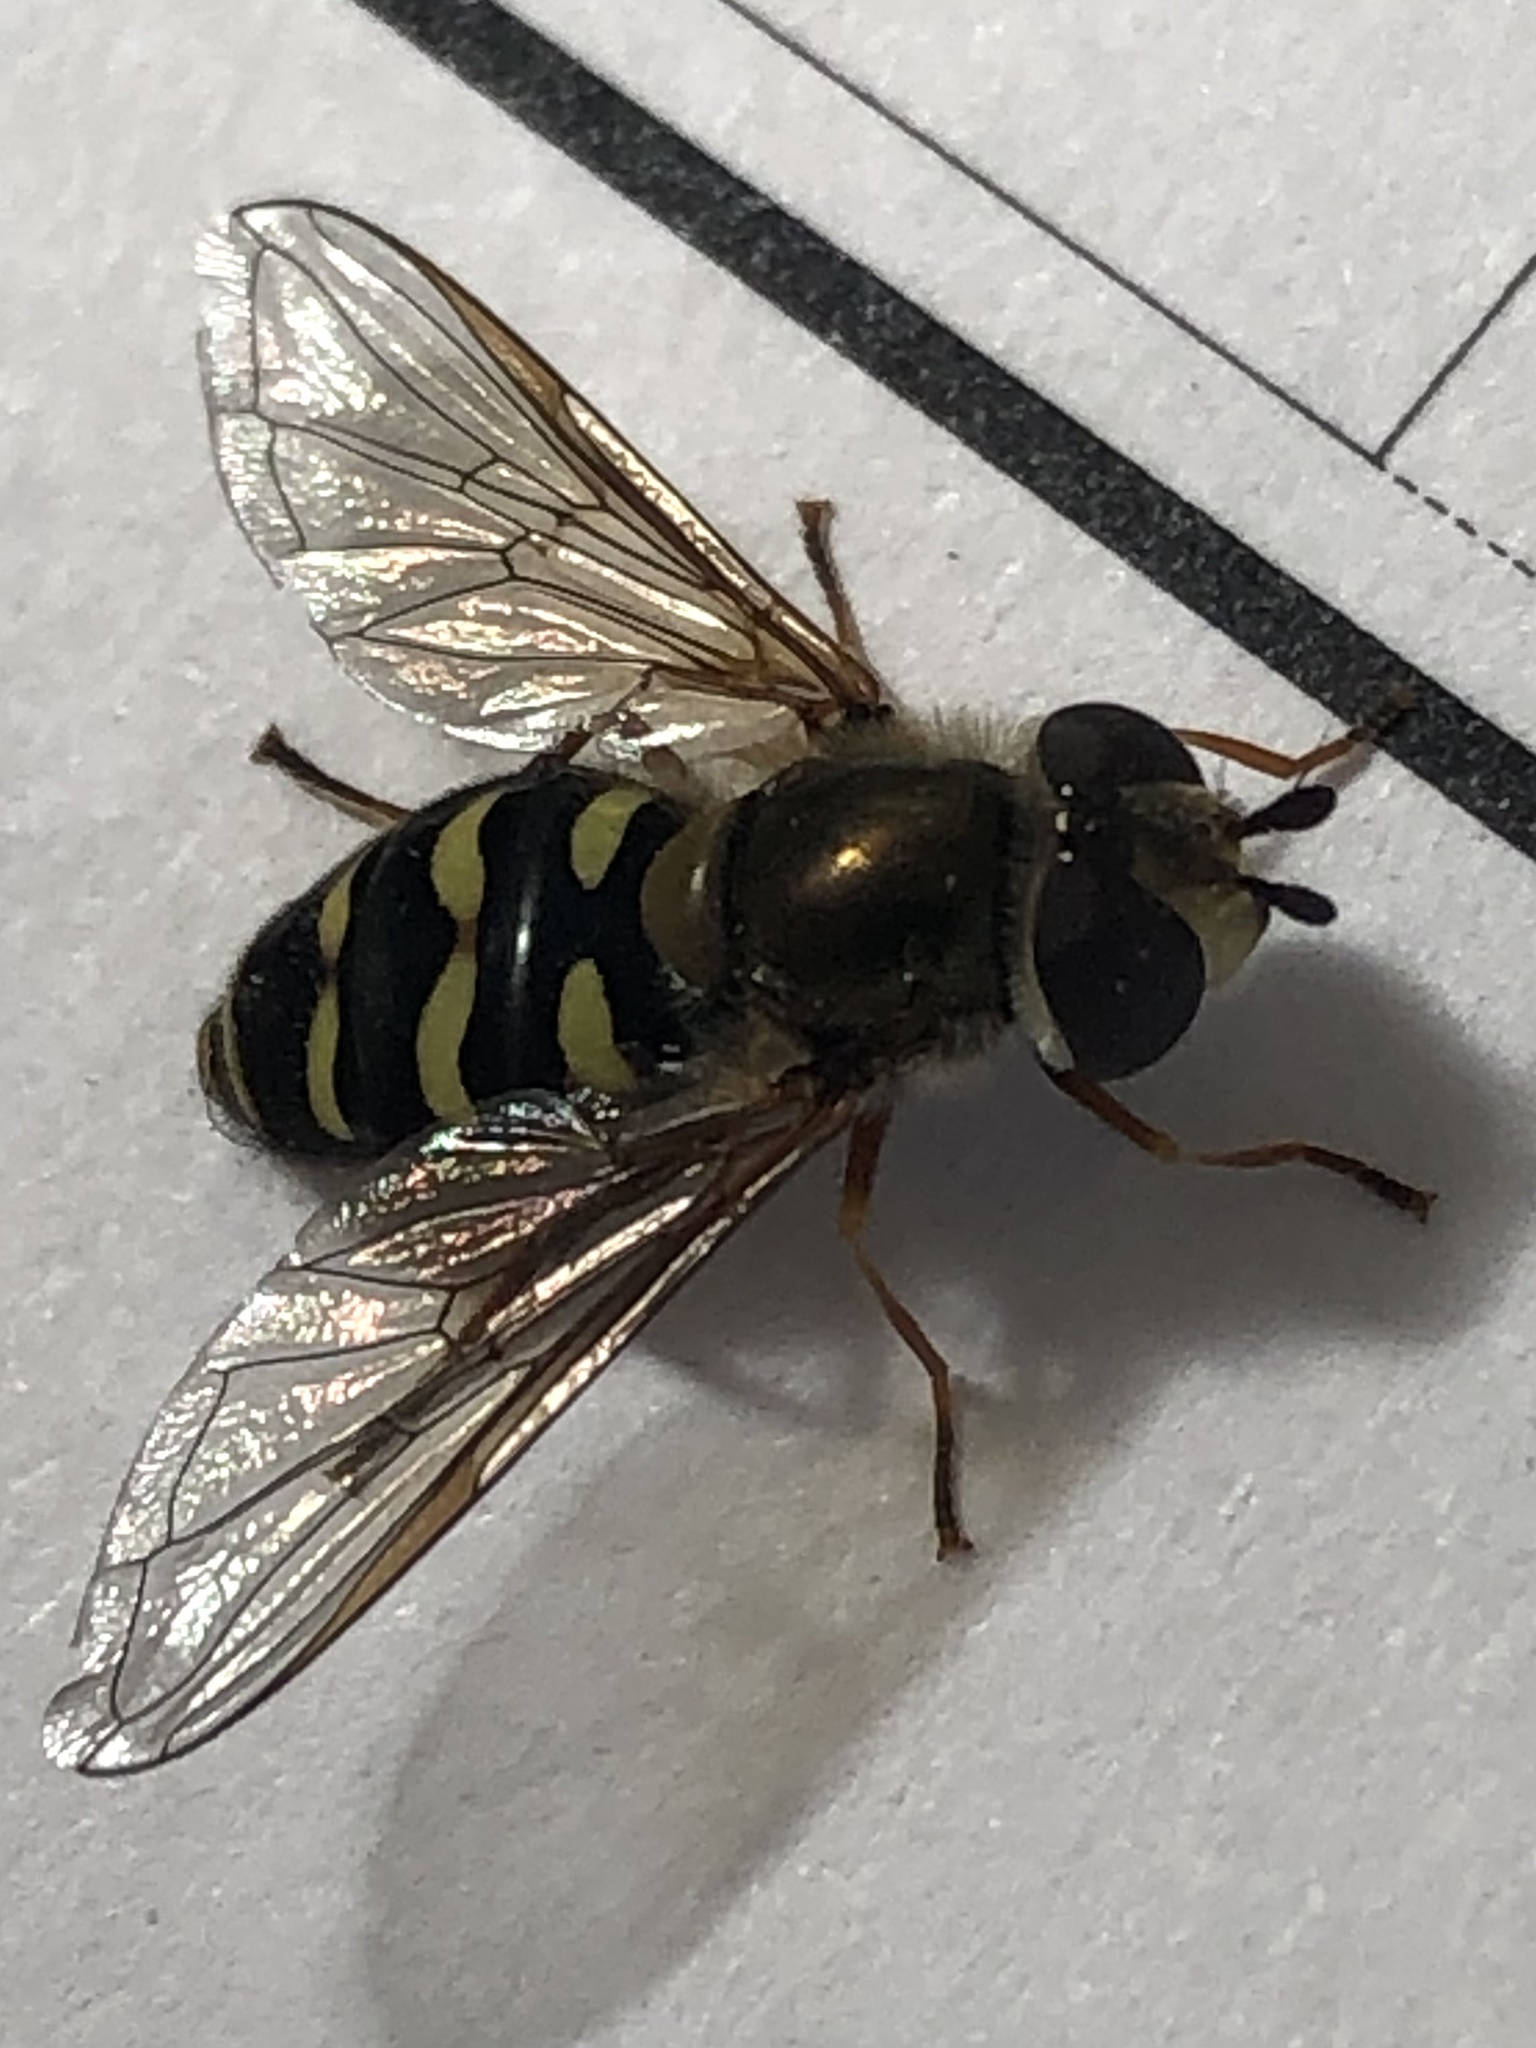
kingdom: Animalia
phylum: Arthropoda
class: Insecta
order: Diptera
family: Syrphidae
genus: Eupeodes
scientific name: Eupeodes fumipennis
